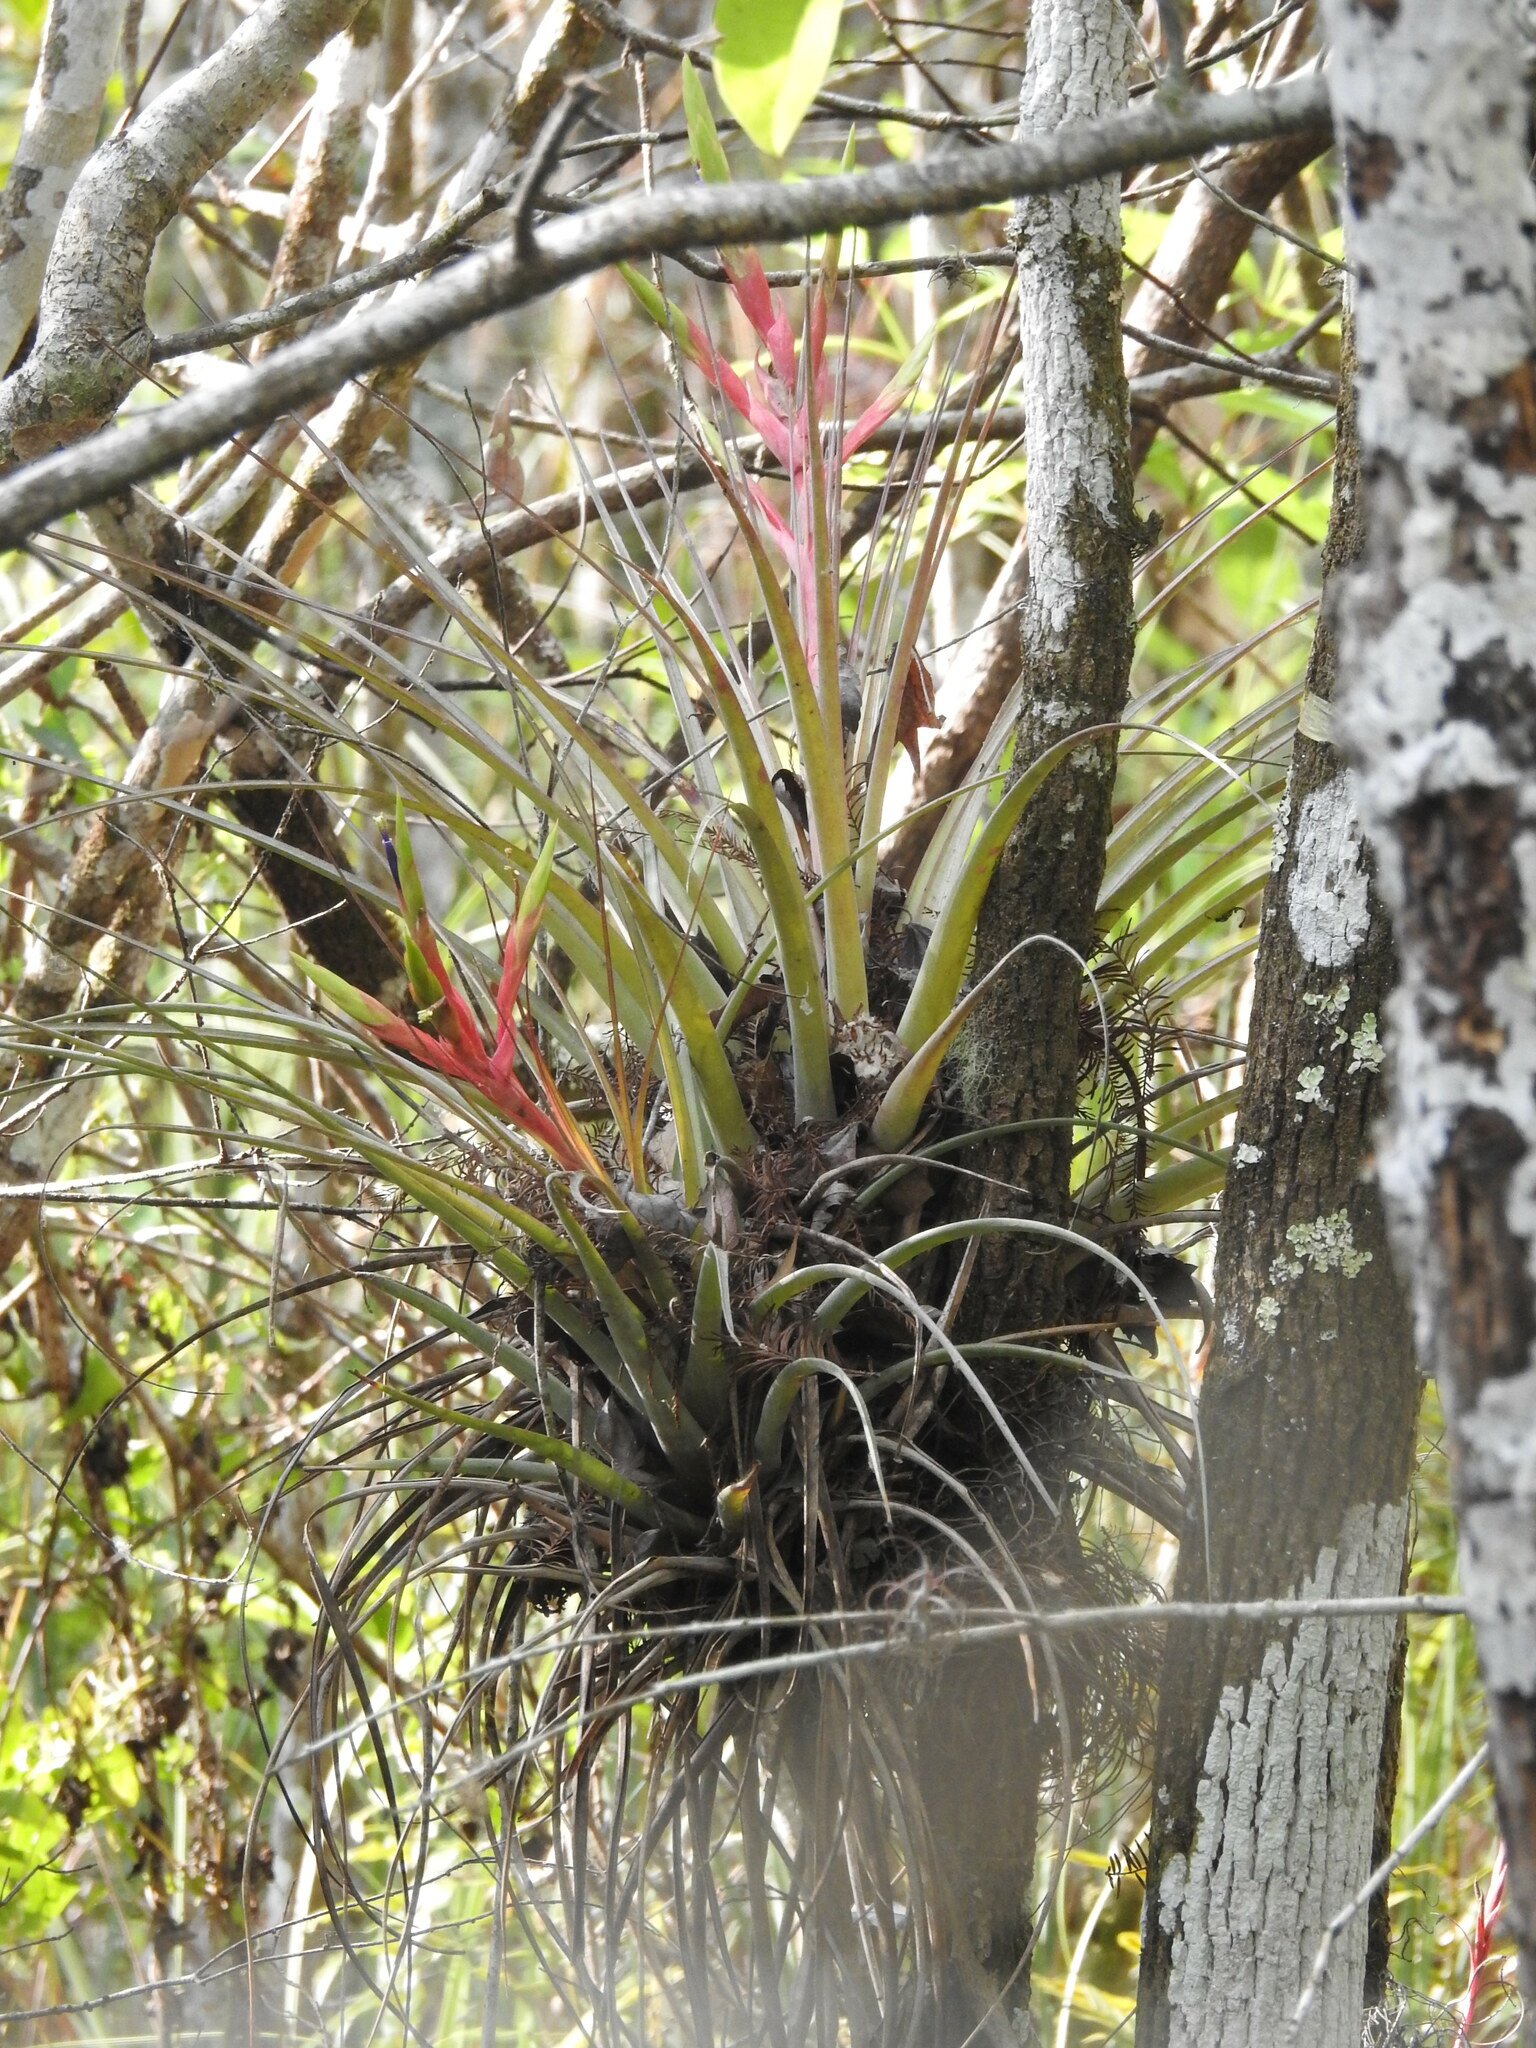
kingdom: Plantae
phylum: Tracheophyta
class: Liliopsida
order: Poales
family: Bromeliaceae
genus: Tillandsia
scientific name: Tillandsia fasciculata
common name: Giant airplant
